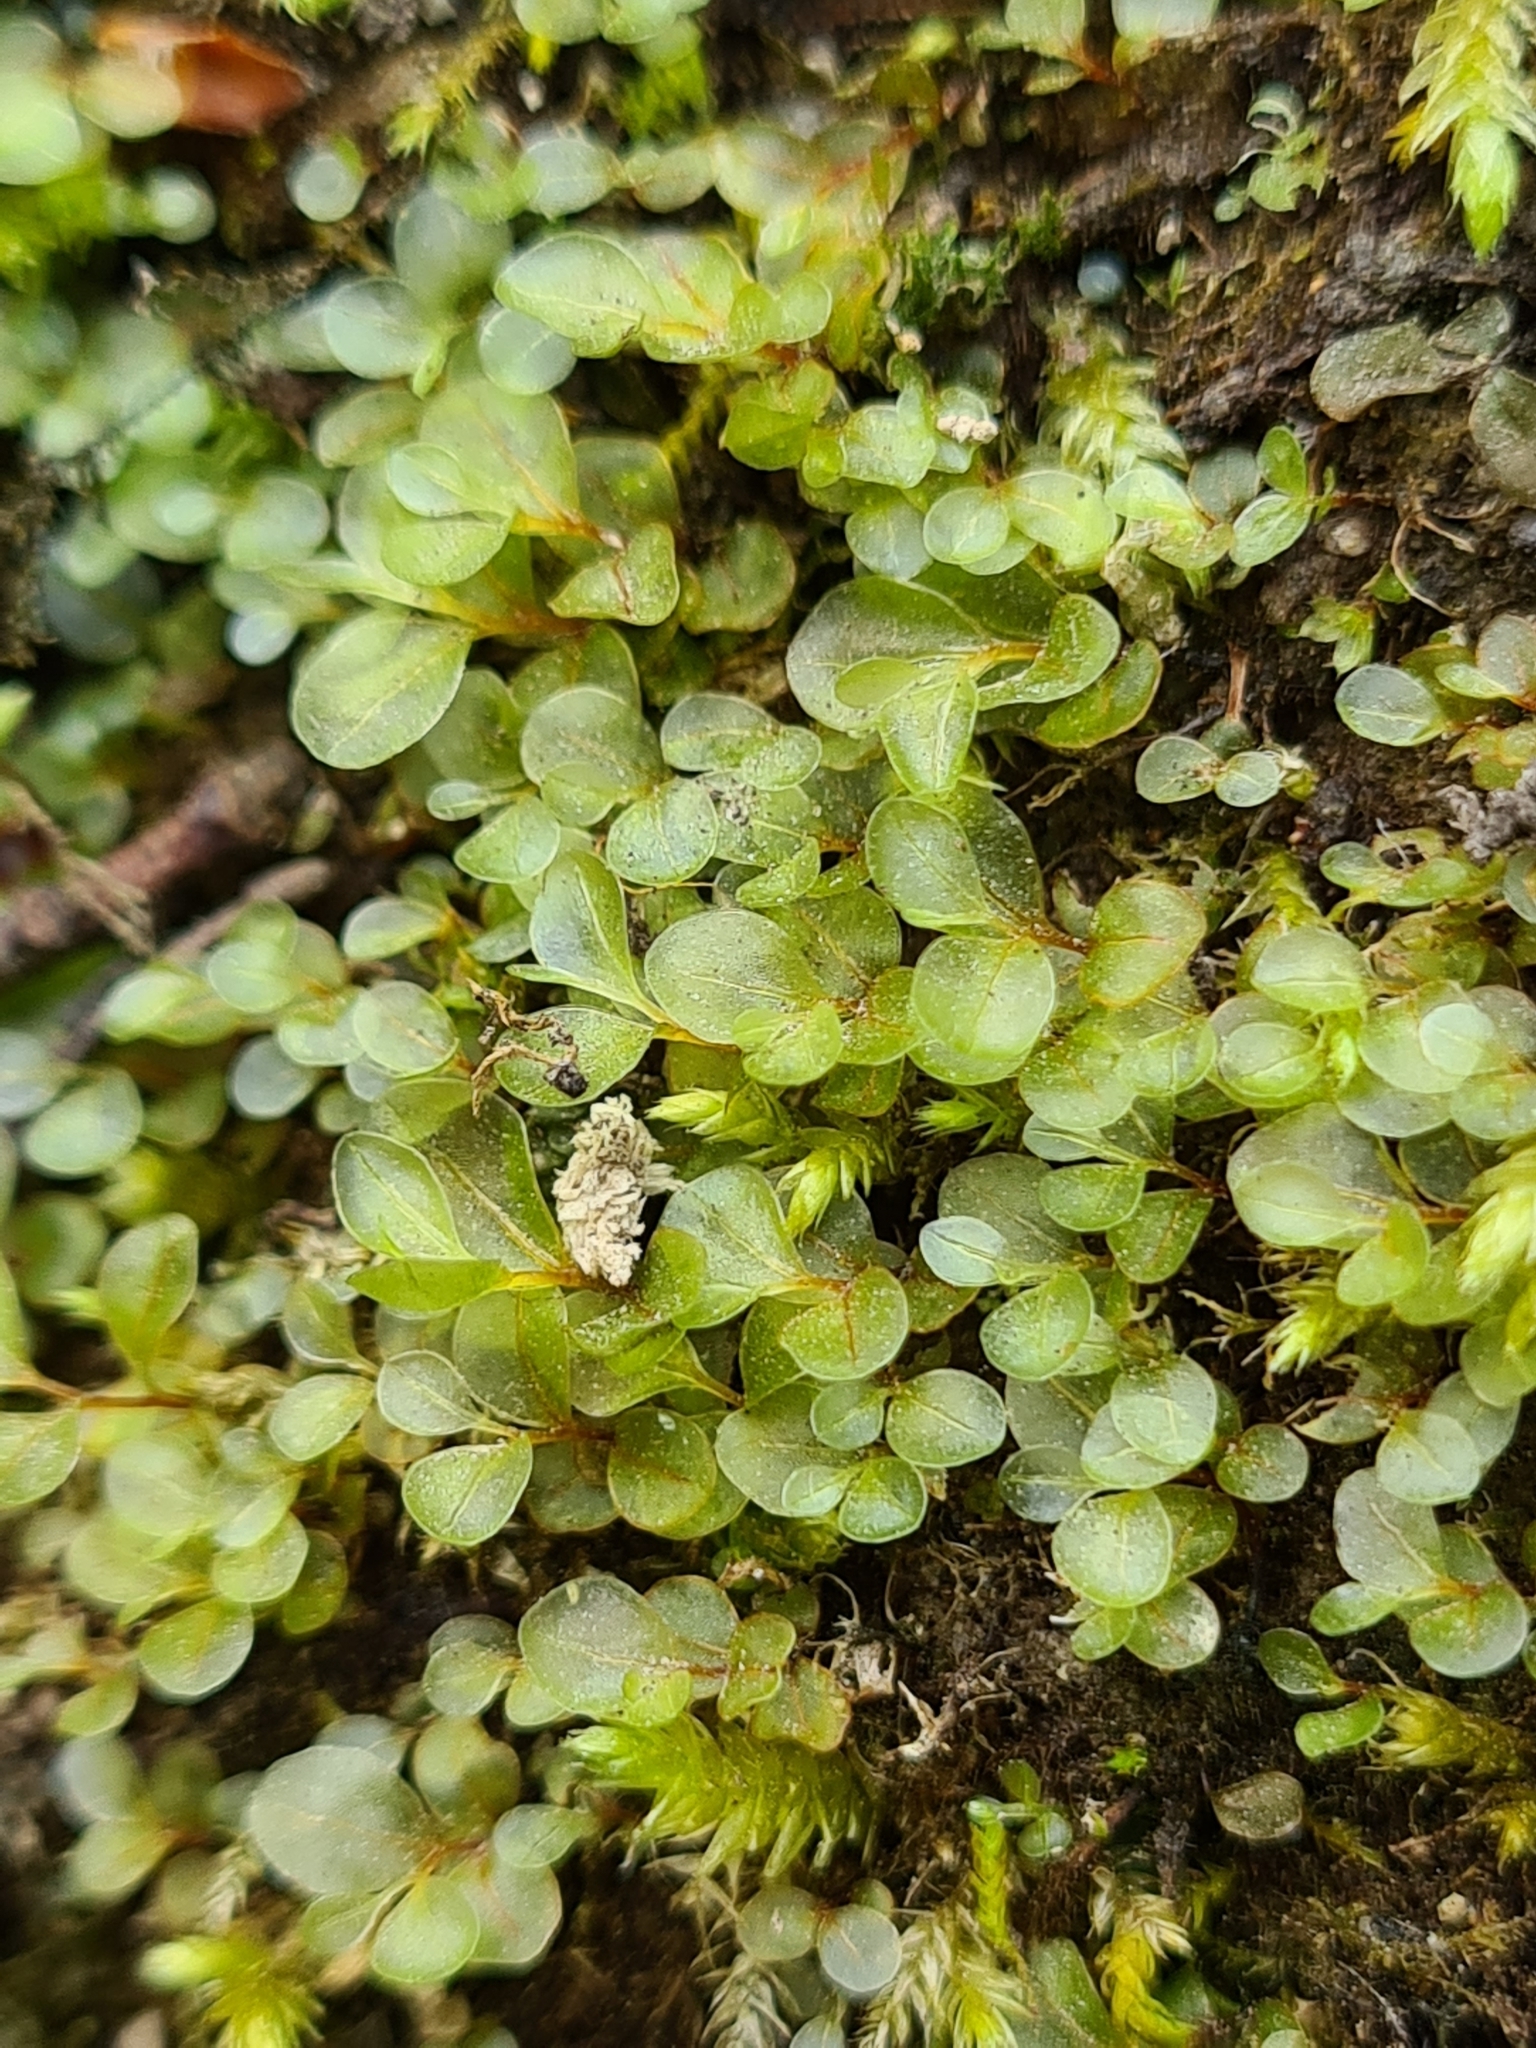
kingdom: Plantae
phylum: Bryophyta
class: Bryopsida
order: Bryales
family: Mniaceae
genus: Rhizomnium
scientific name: Rhizomnium punctatum
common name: Dotted leafy moss
